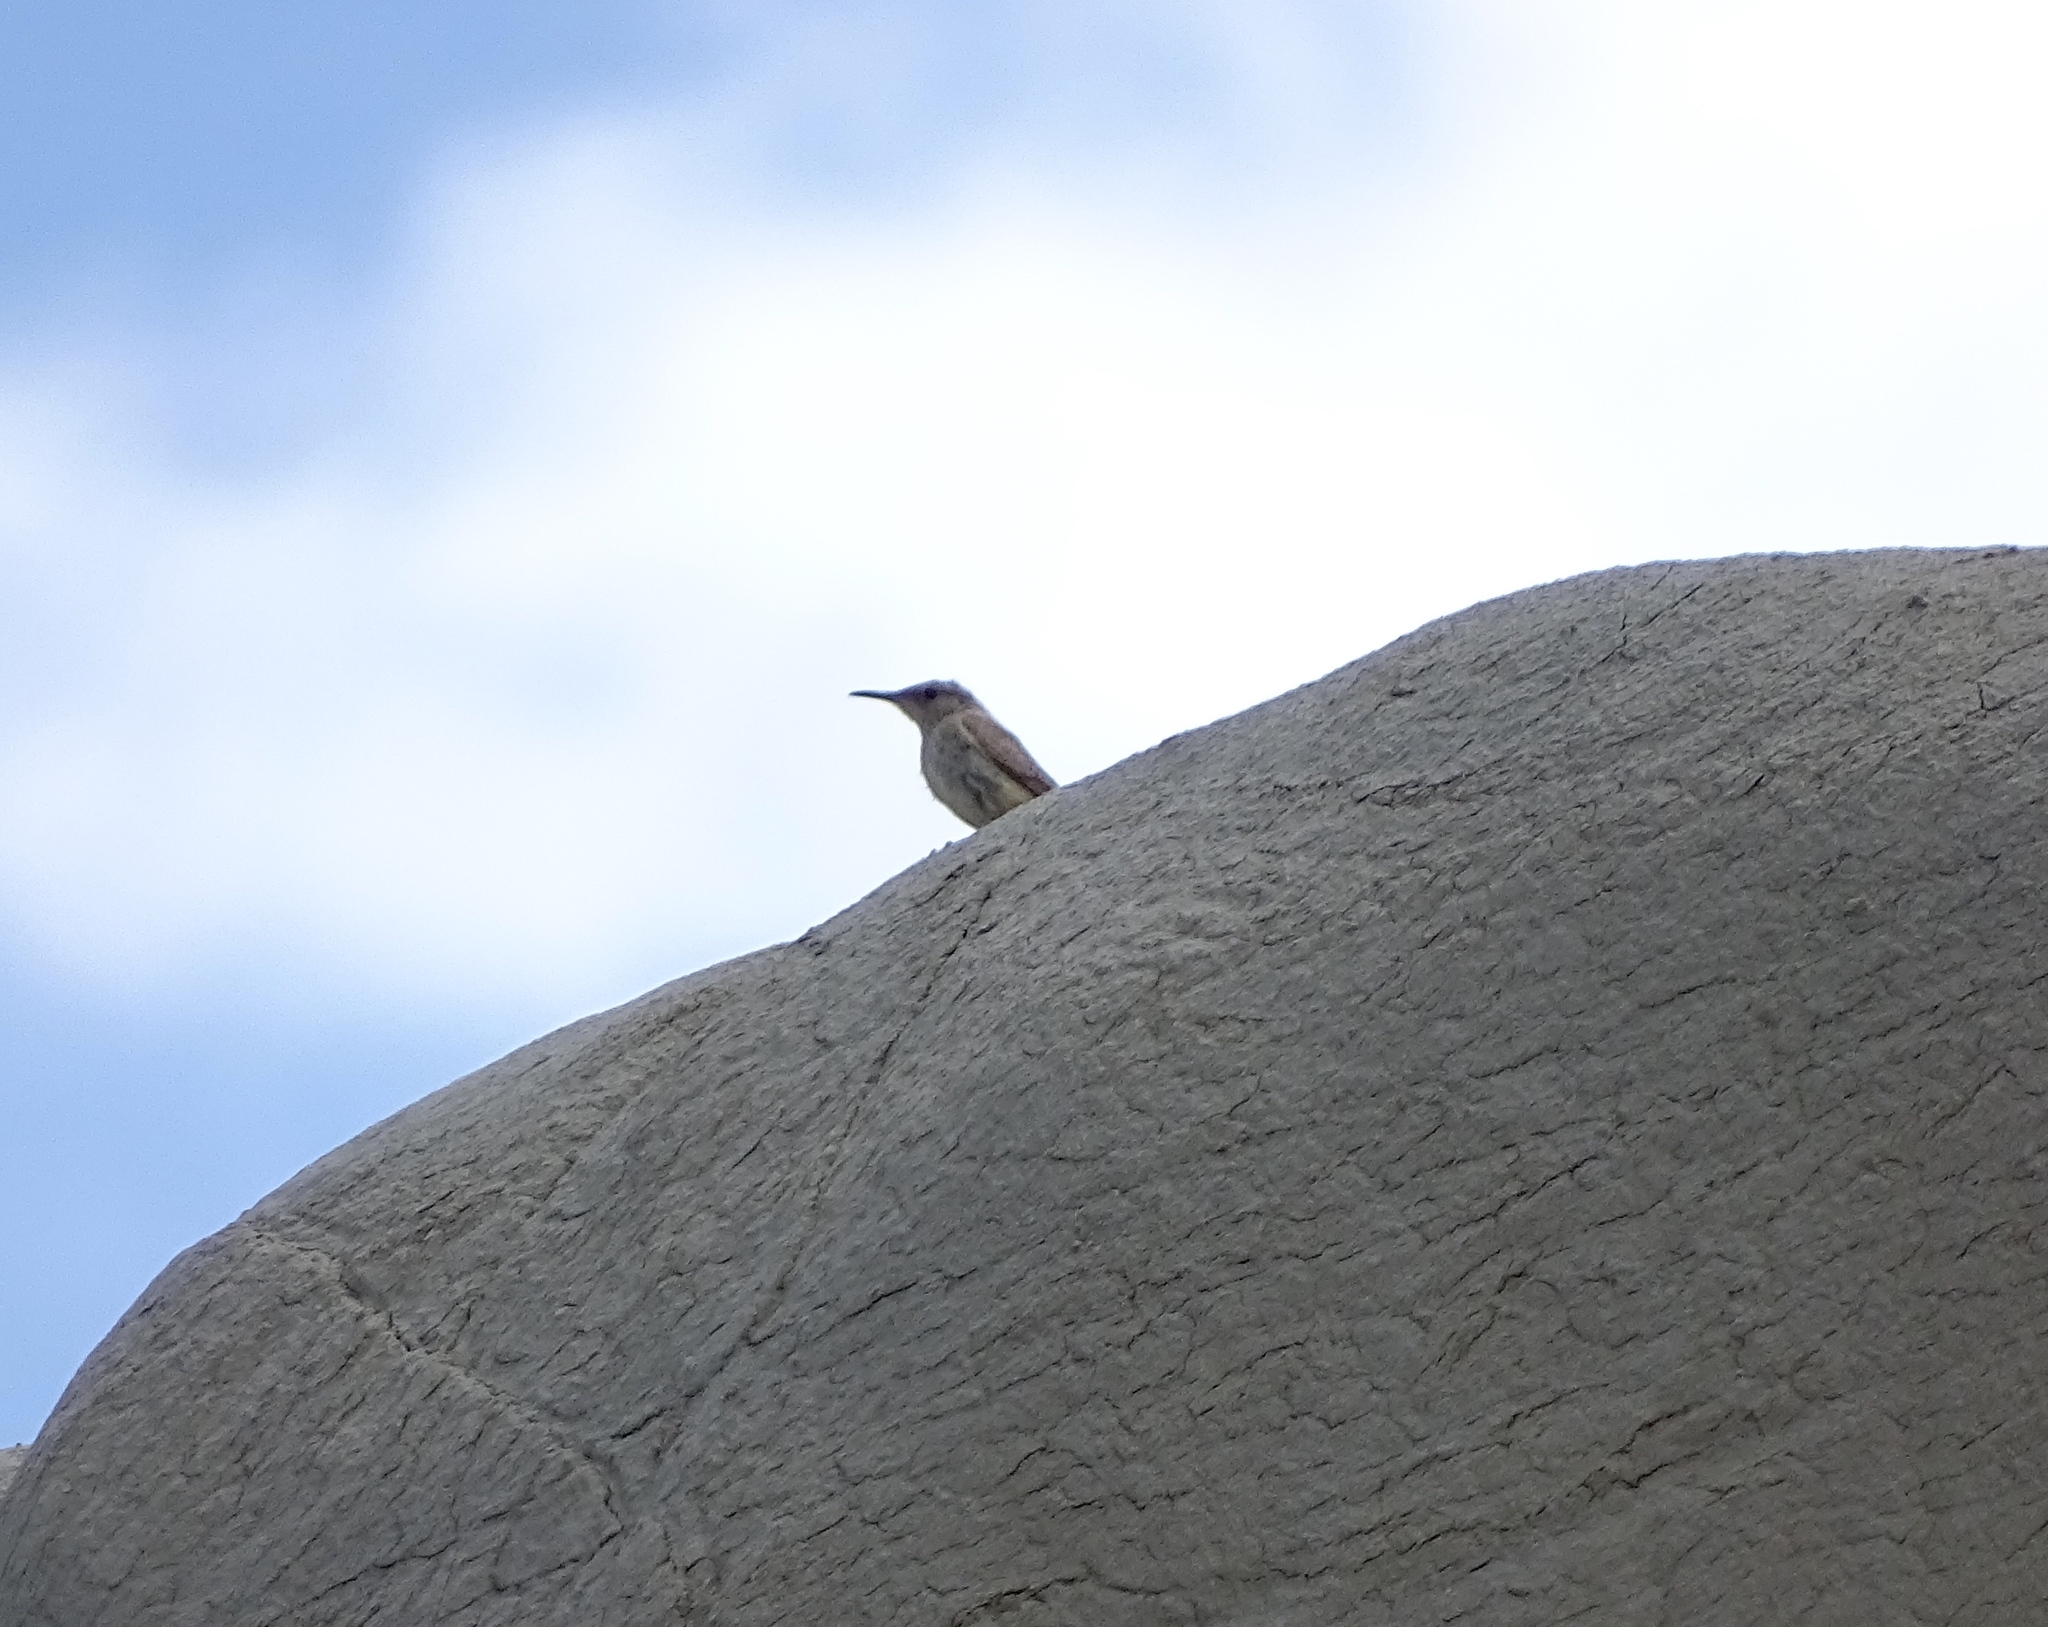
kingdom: Animalia
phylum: Chordata
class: Aves
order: Passeriformes
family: Troglodytidae
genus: Salpinctes
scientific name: Salpinctes obsoletus
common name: Rock wren
